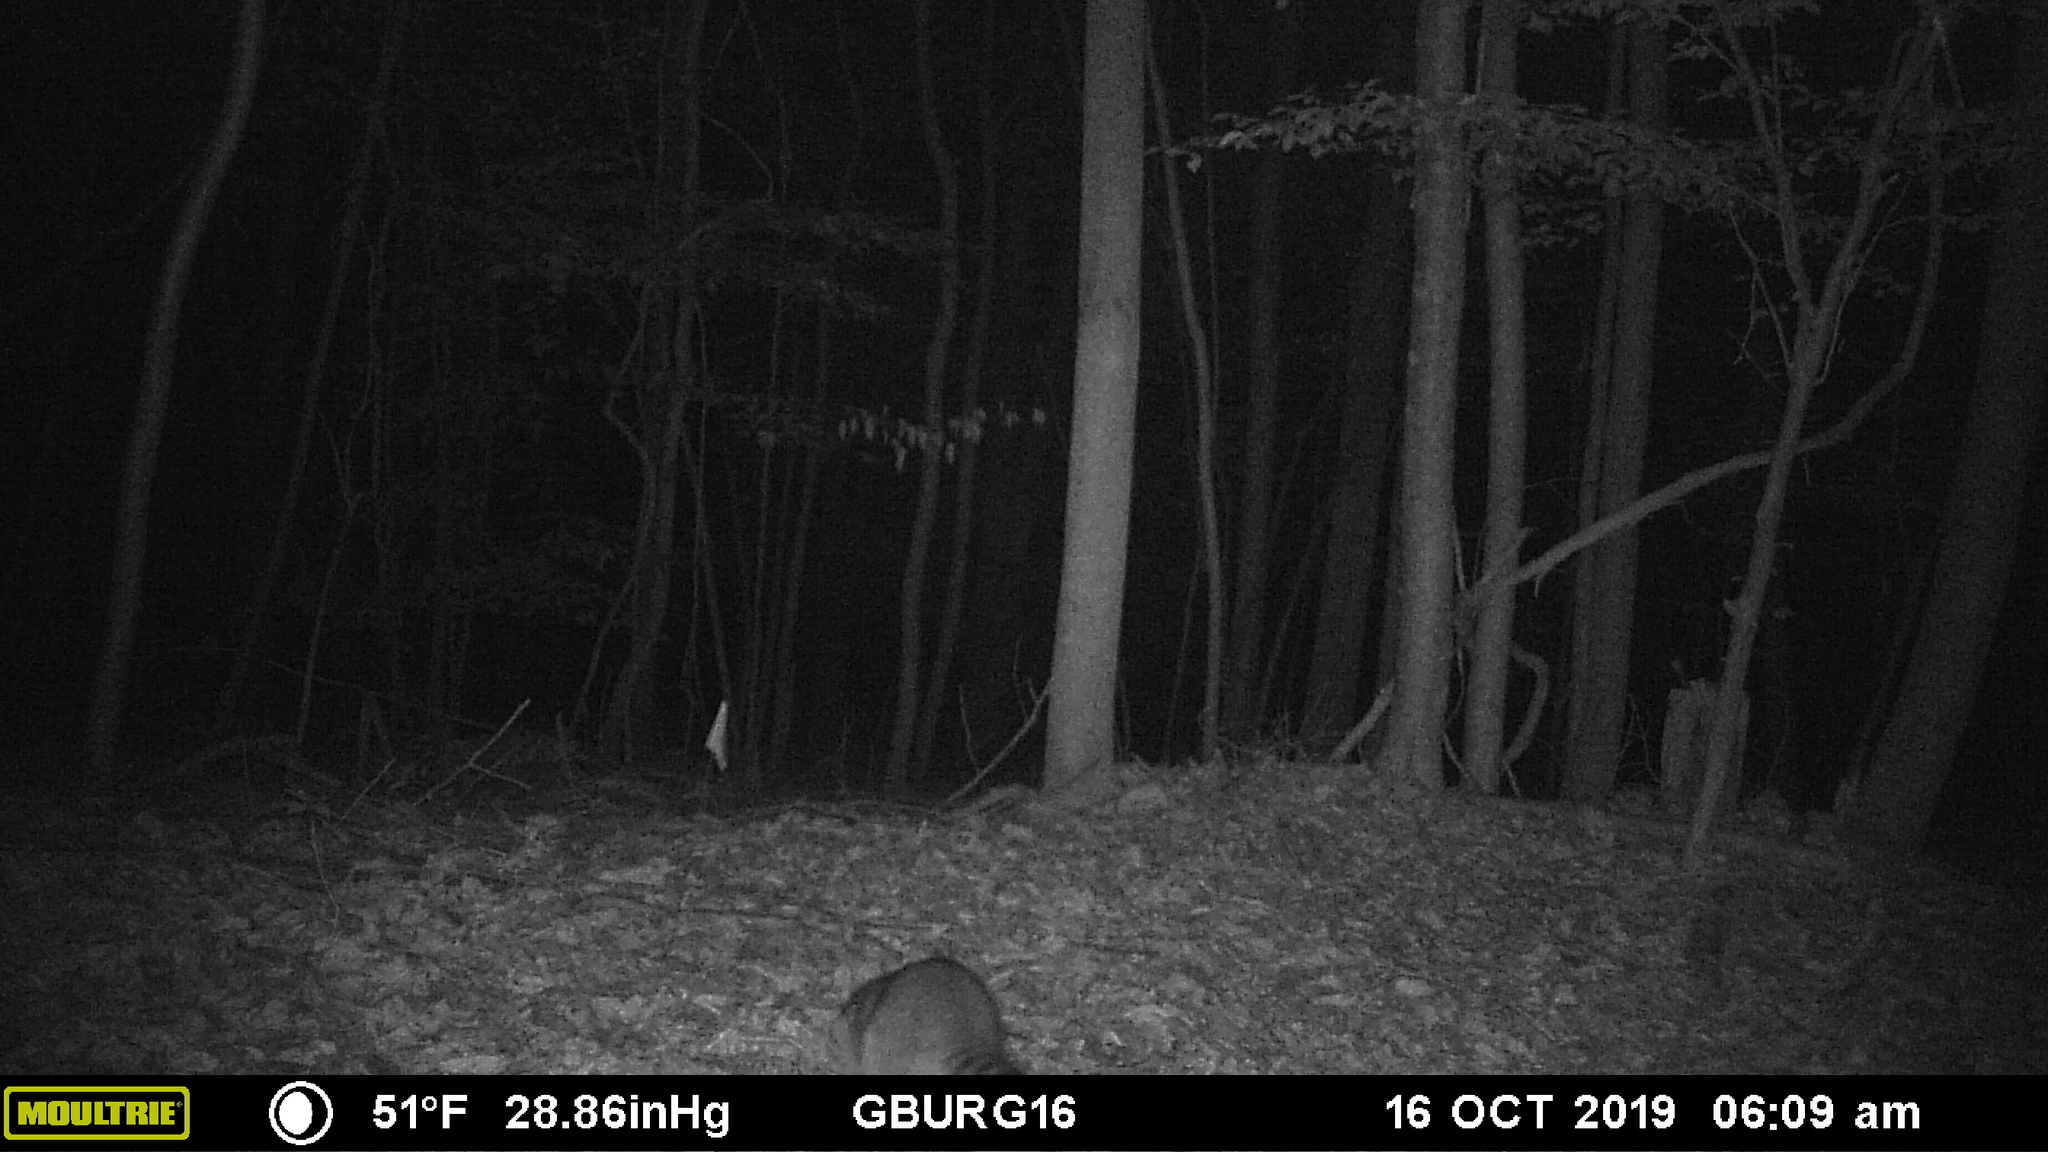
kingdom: Animalia
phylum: Chordata
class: Mammalia
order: Carnivora
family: Procyonidae
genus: Procyon
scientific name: Procyon lotor
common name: Raccoon
